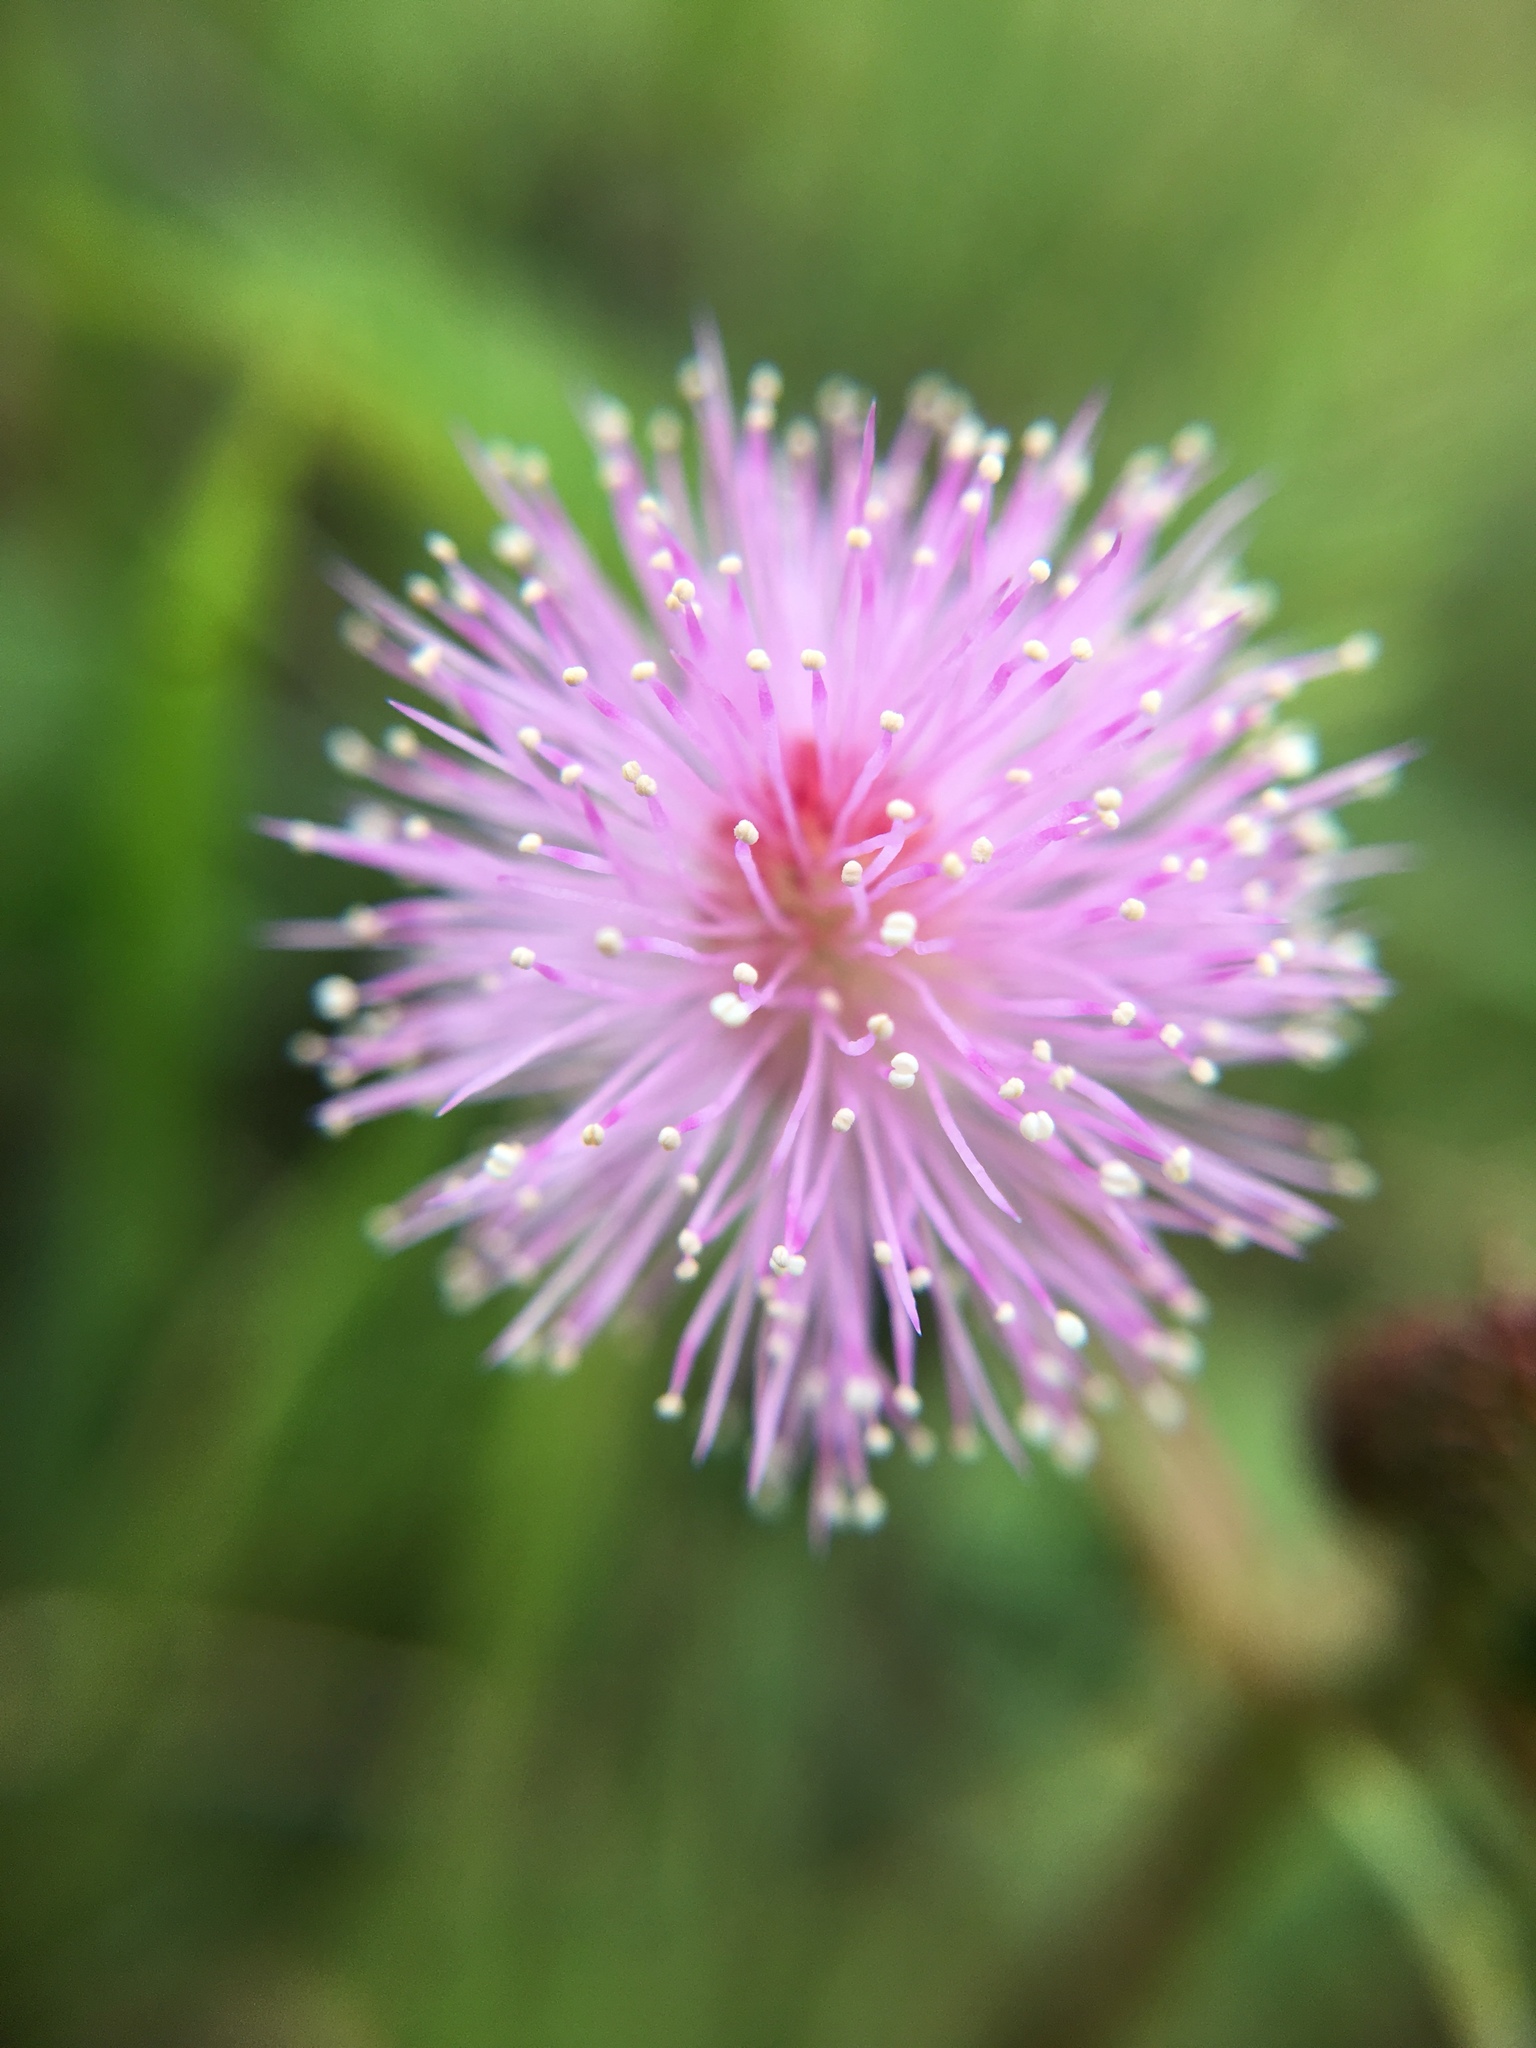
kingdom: Plantae
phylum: Tracheophyta
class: Magnoliopsida
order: Fabales
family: Fabaceae
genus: Mimosa
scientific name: Mimosa pudica
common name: Sensitive plant
